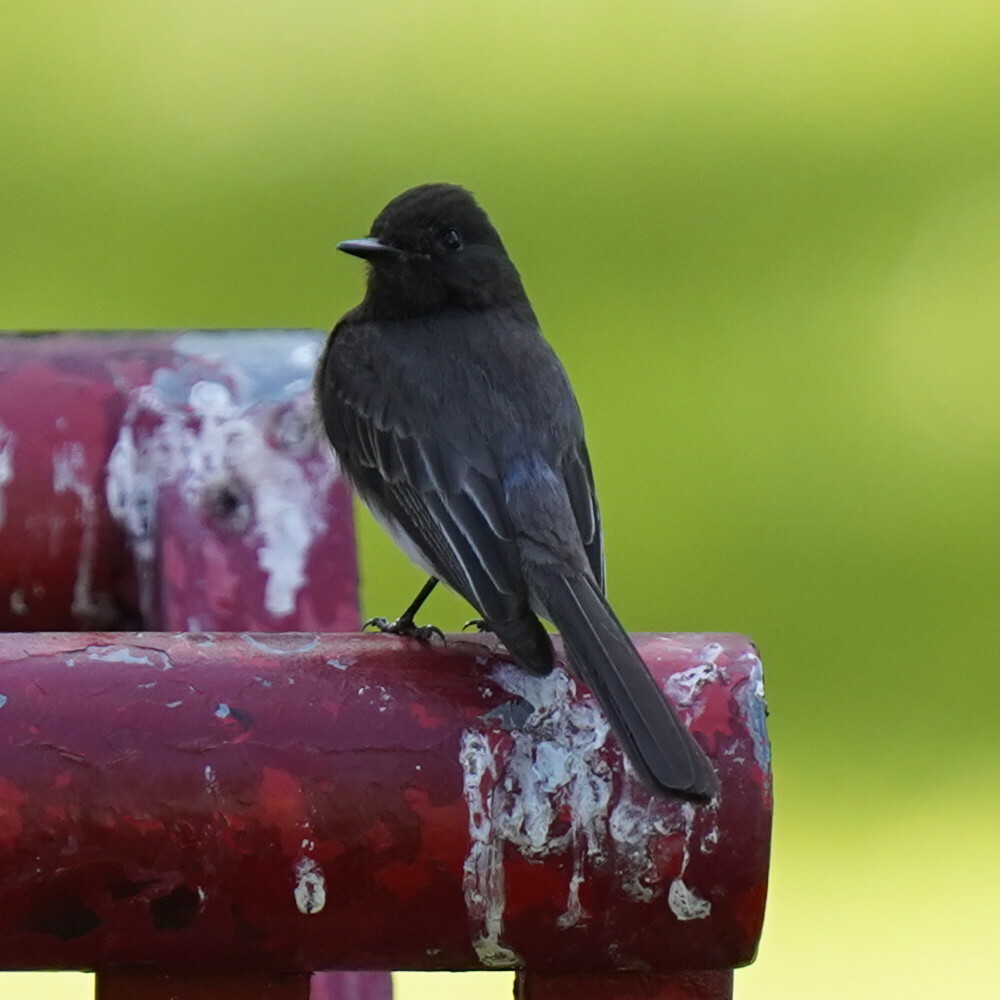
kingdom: Animalia
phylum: Chordata
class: Aves
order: Passeriformes
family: Tyrannidae
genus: Sayornis
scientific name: Sayornis nigricans
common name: Black phoebe
